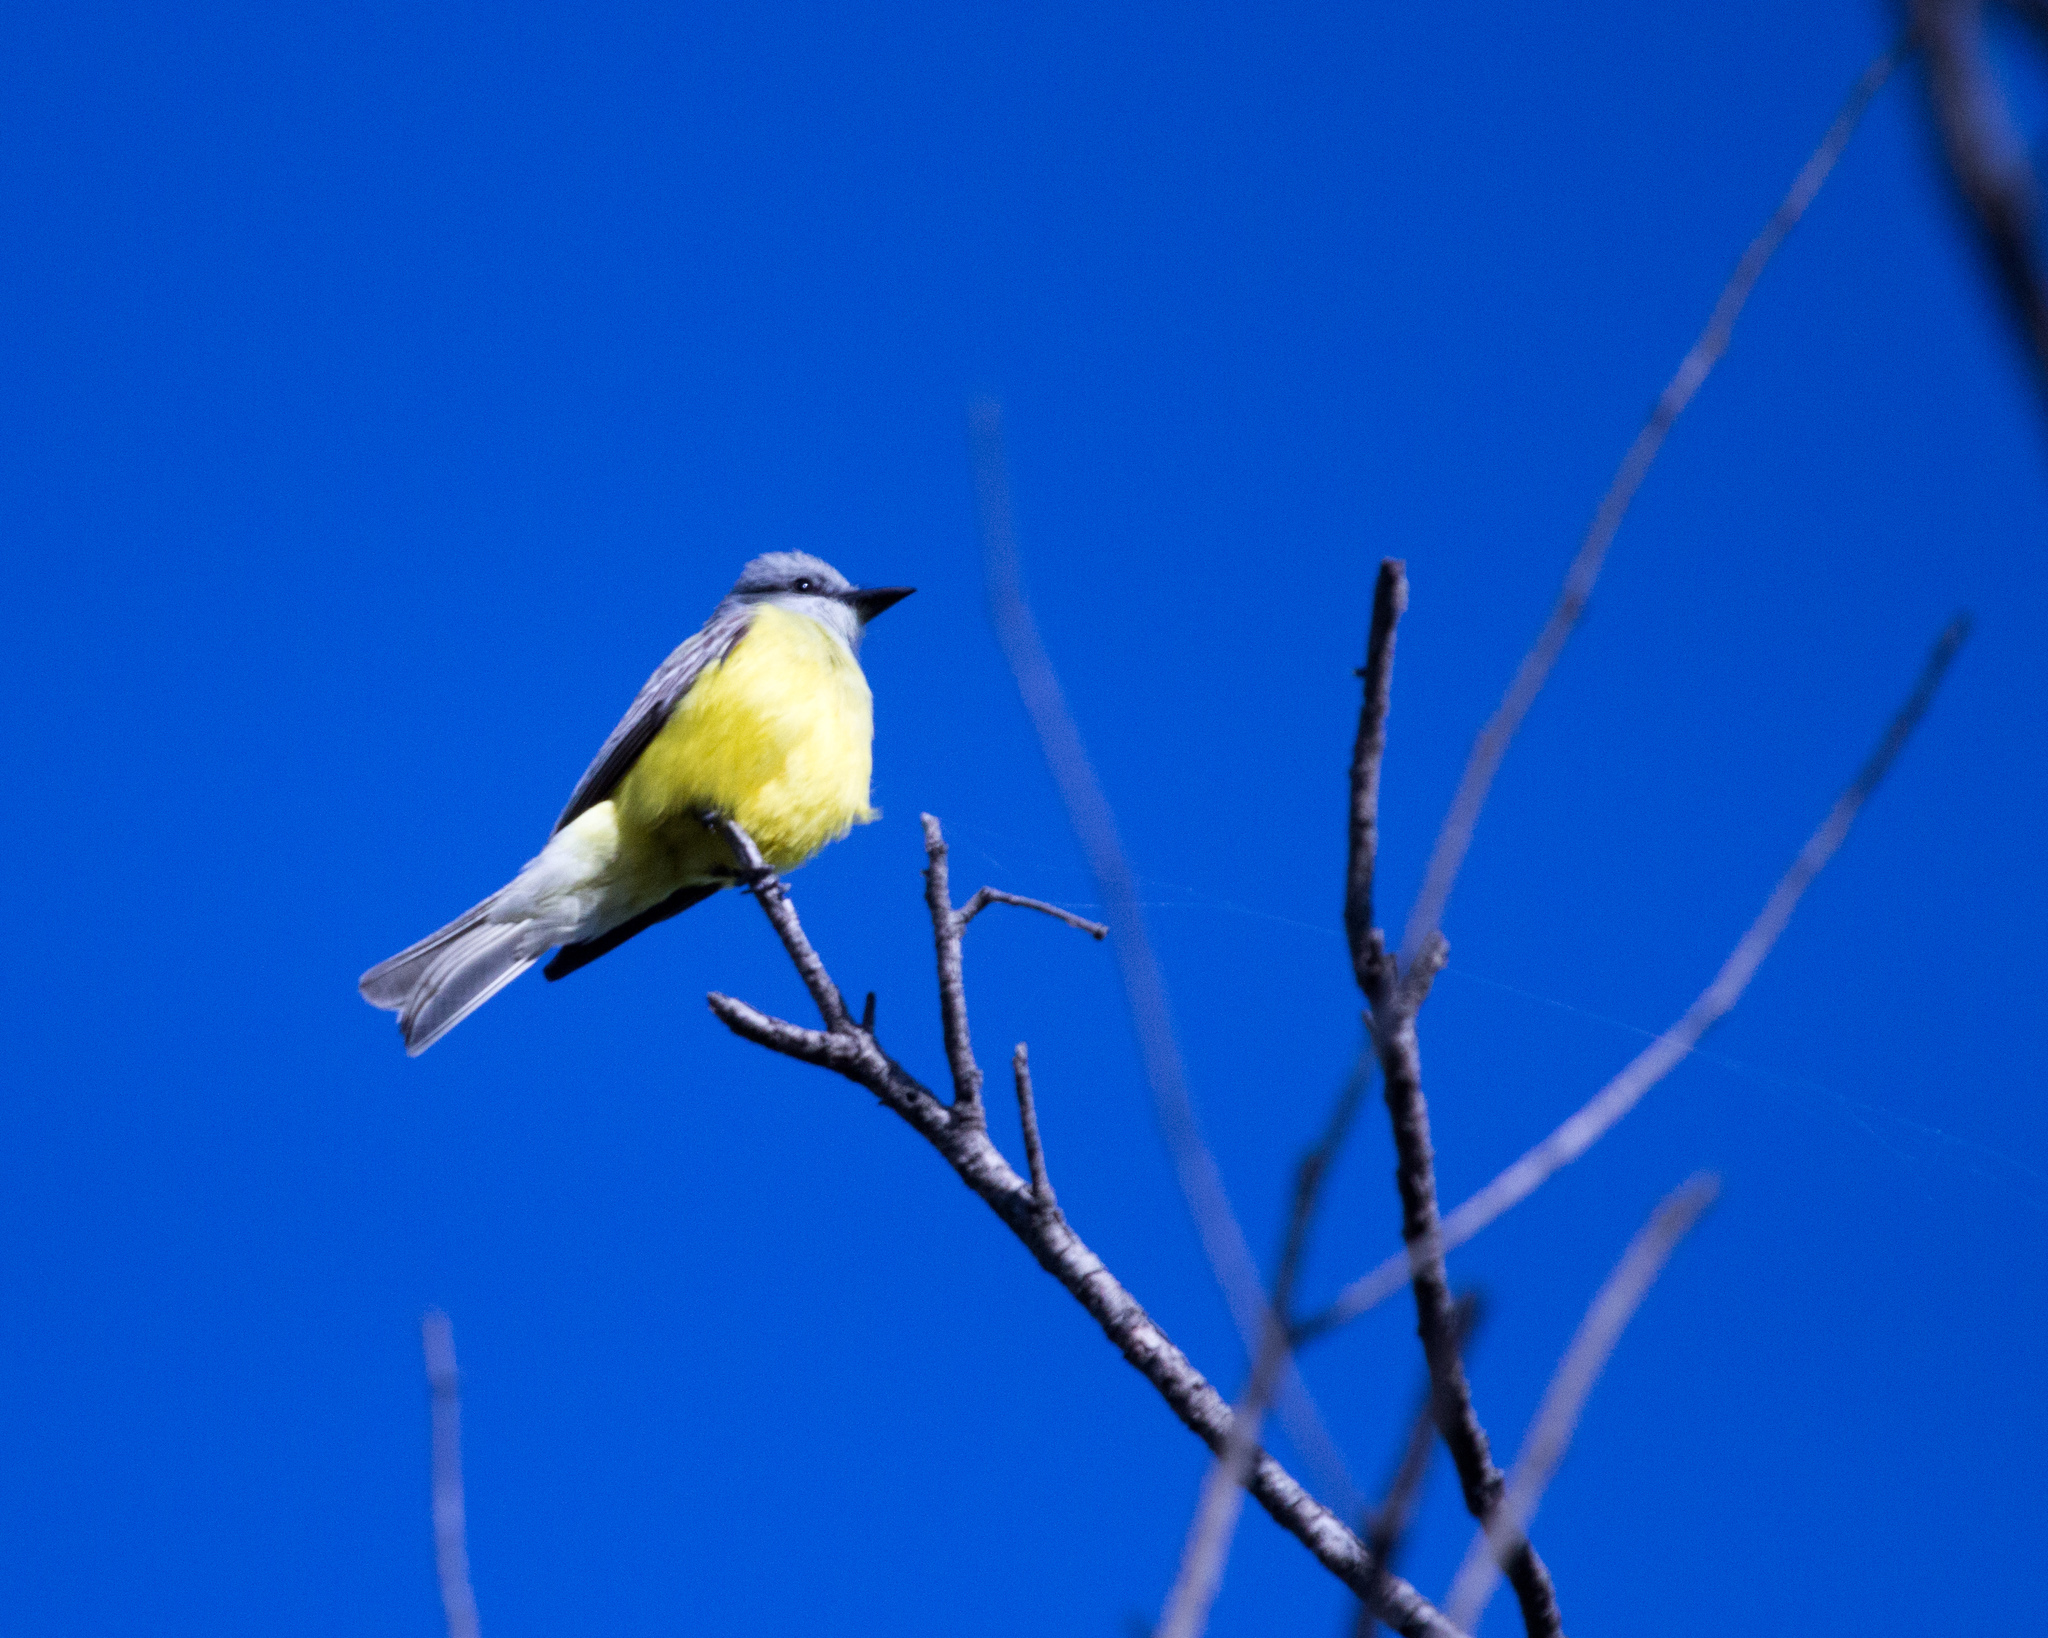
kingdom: Animalia
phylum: Chordata
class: Aves
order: Passeriformes
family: Tyrannidae
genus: Tyrannus
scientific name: Tyrannus
